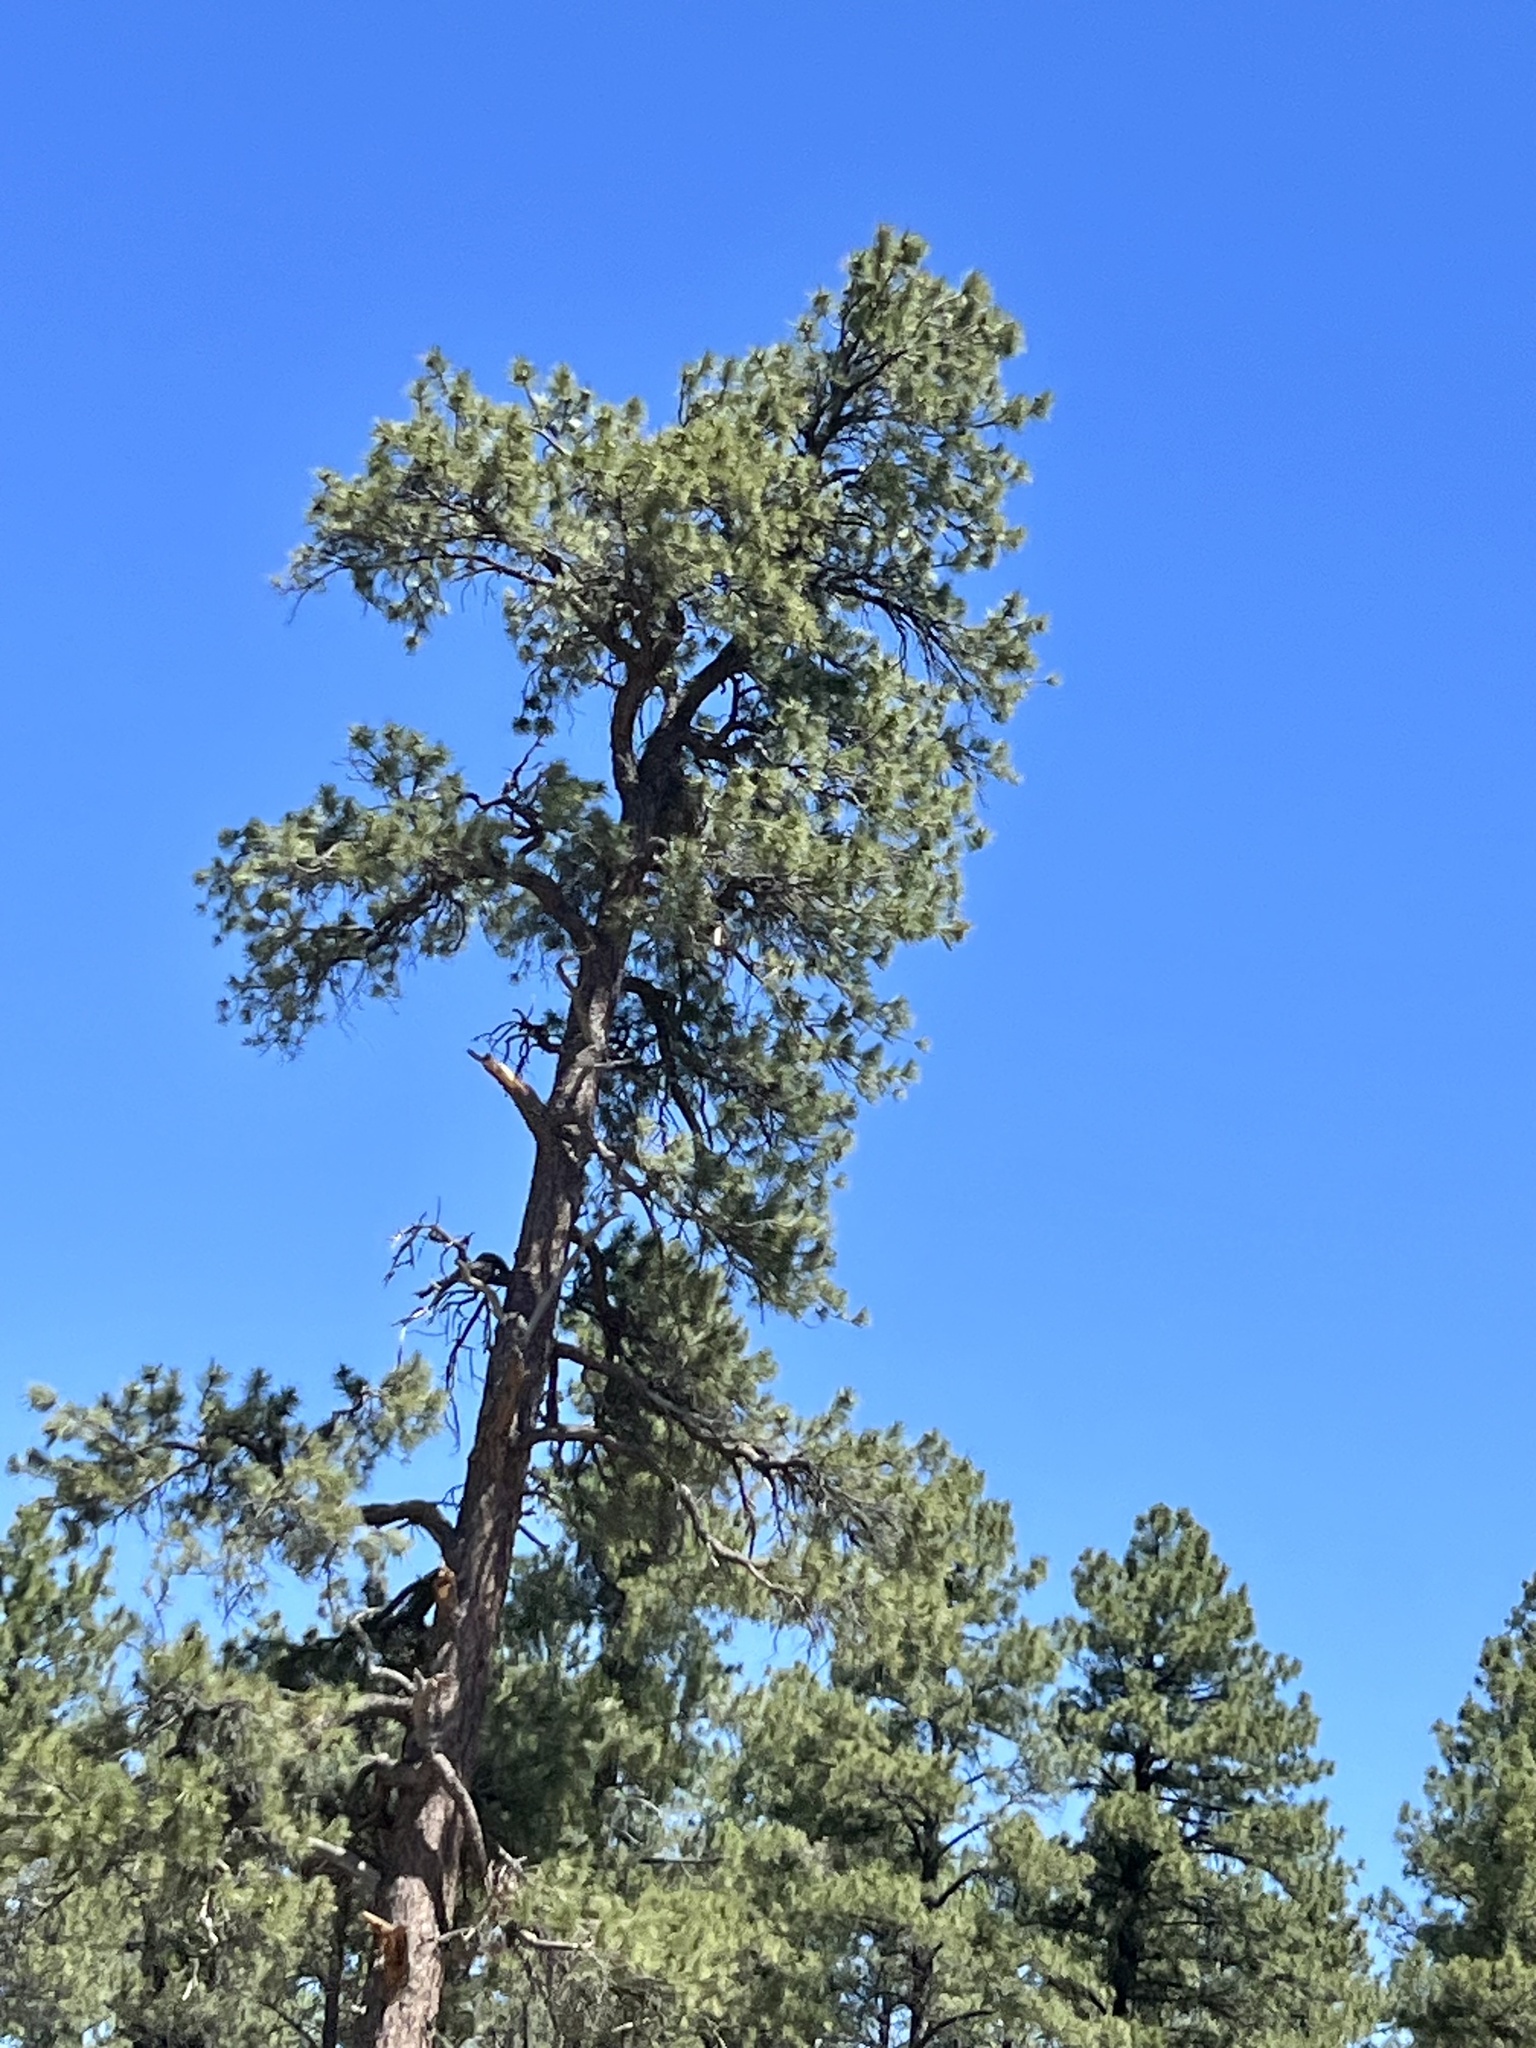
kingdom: Plantae
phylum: Tracheophyta
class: Pinopsida
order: Pinales
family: Pinaceae
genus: Pinus
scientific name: Pinus ponderosa
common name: Western yellow-pine
